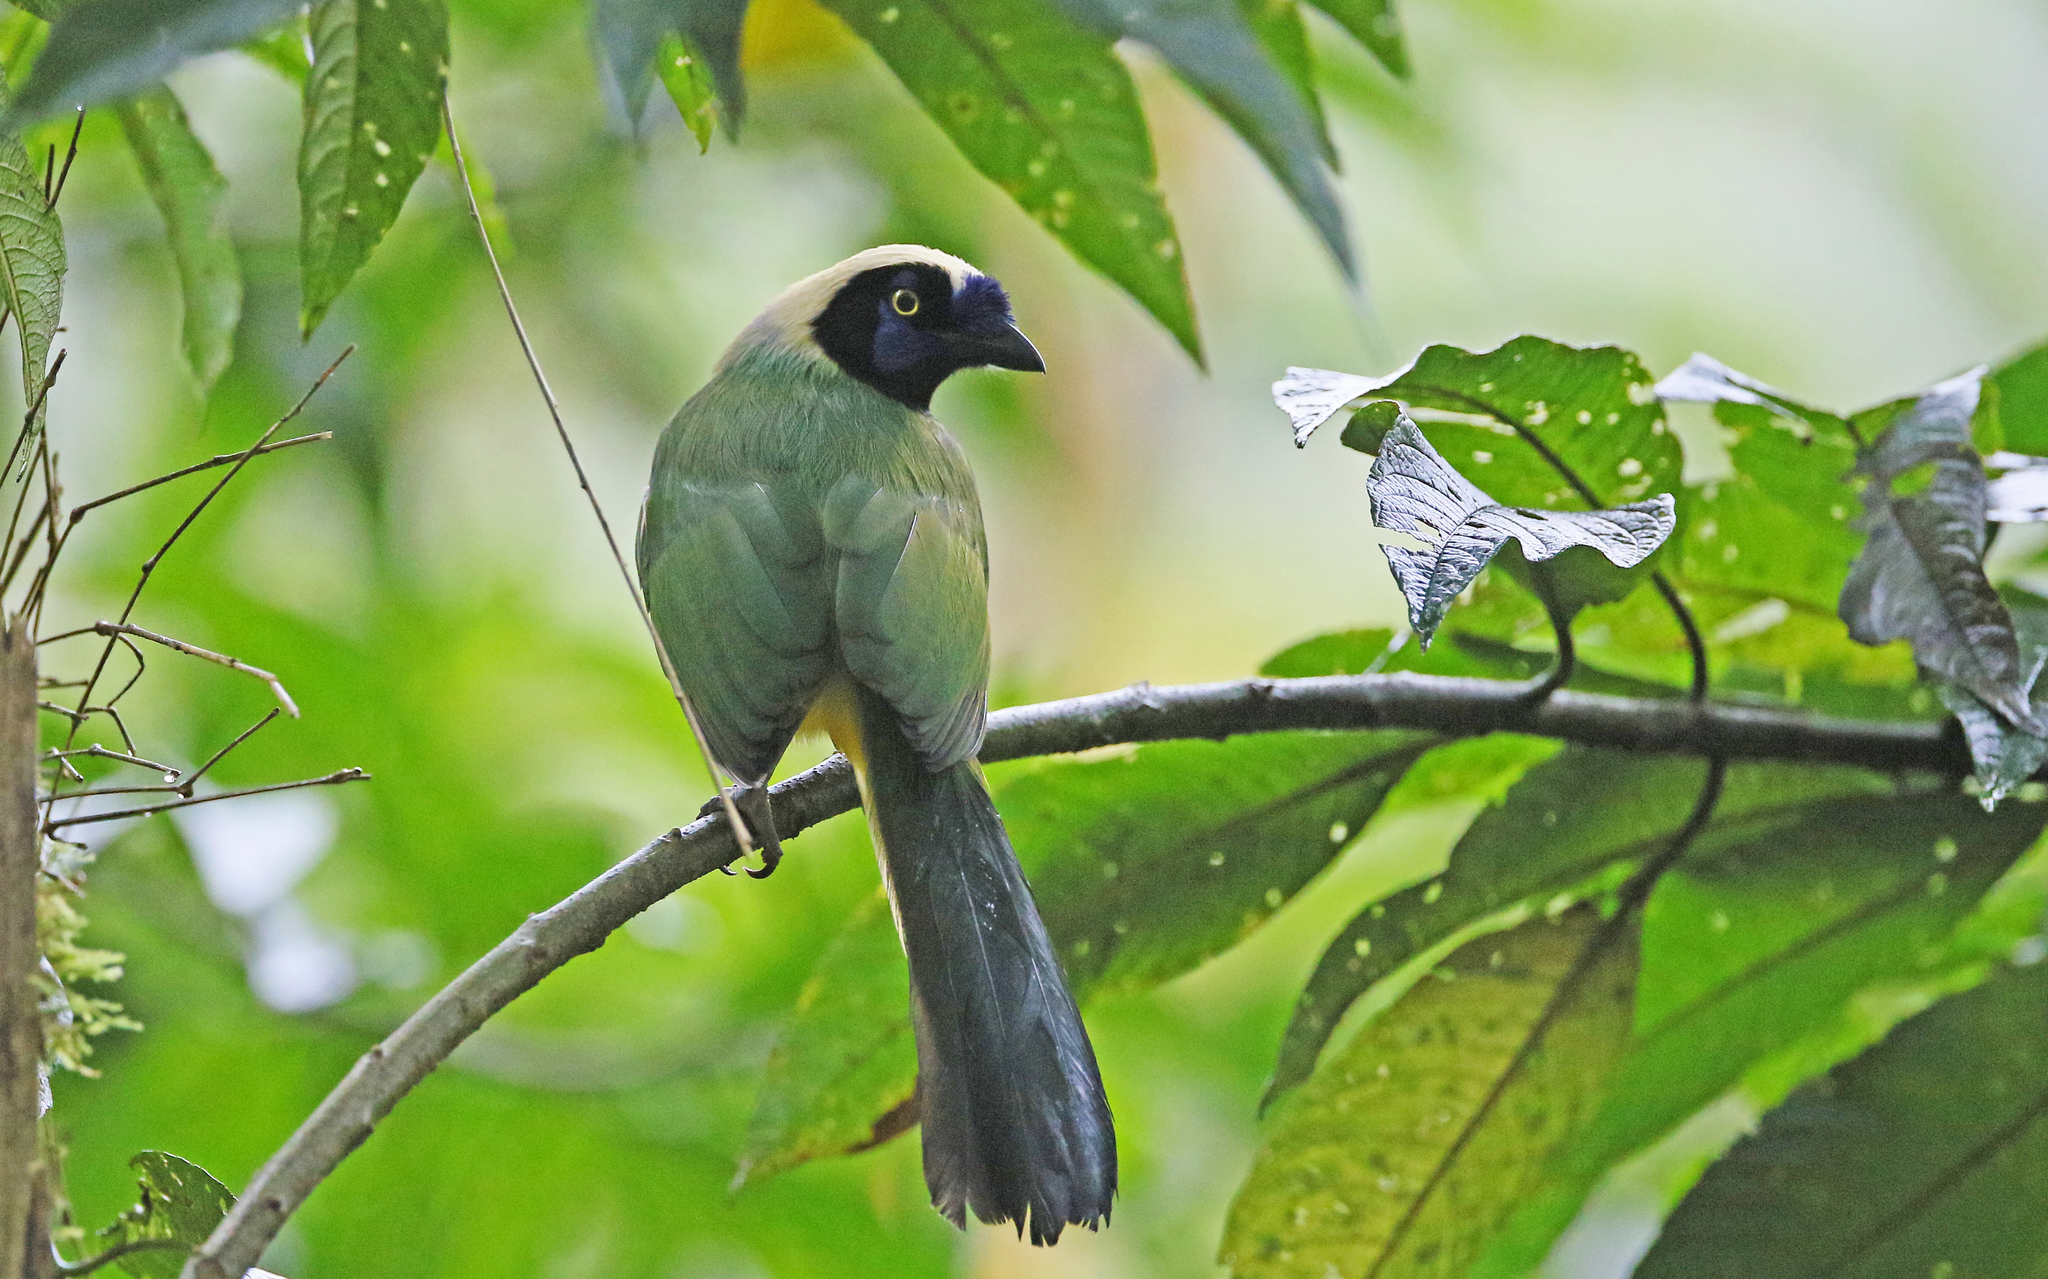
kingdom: Animalia
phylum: Chordata
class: Aves
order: Passeriformes
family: Corvidae
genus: Cyanocorax
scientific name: Cyanocorax yncas
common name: Green jay
